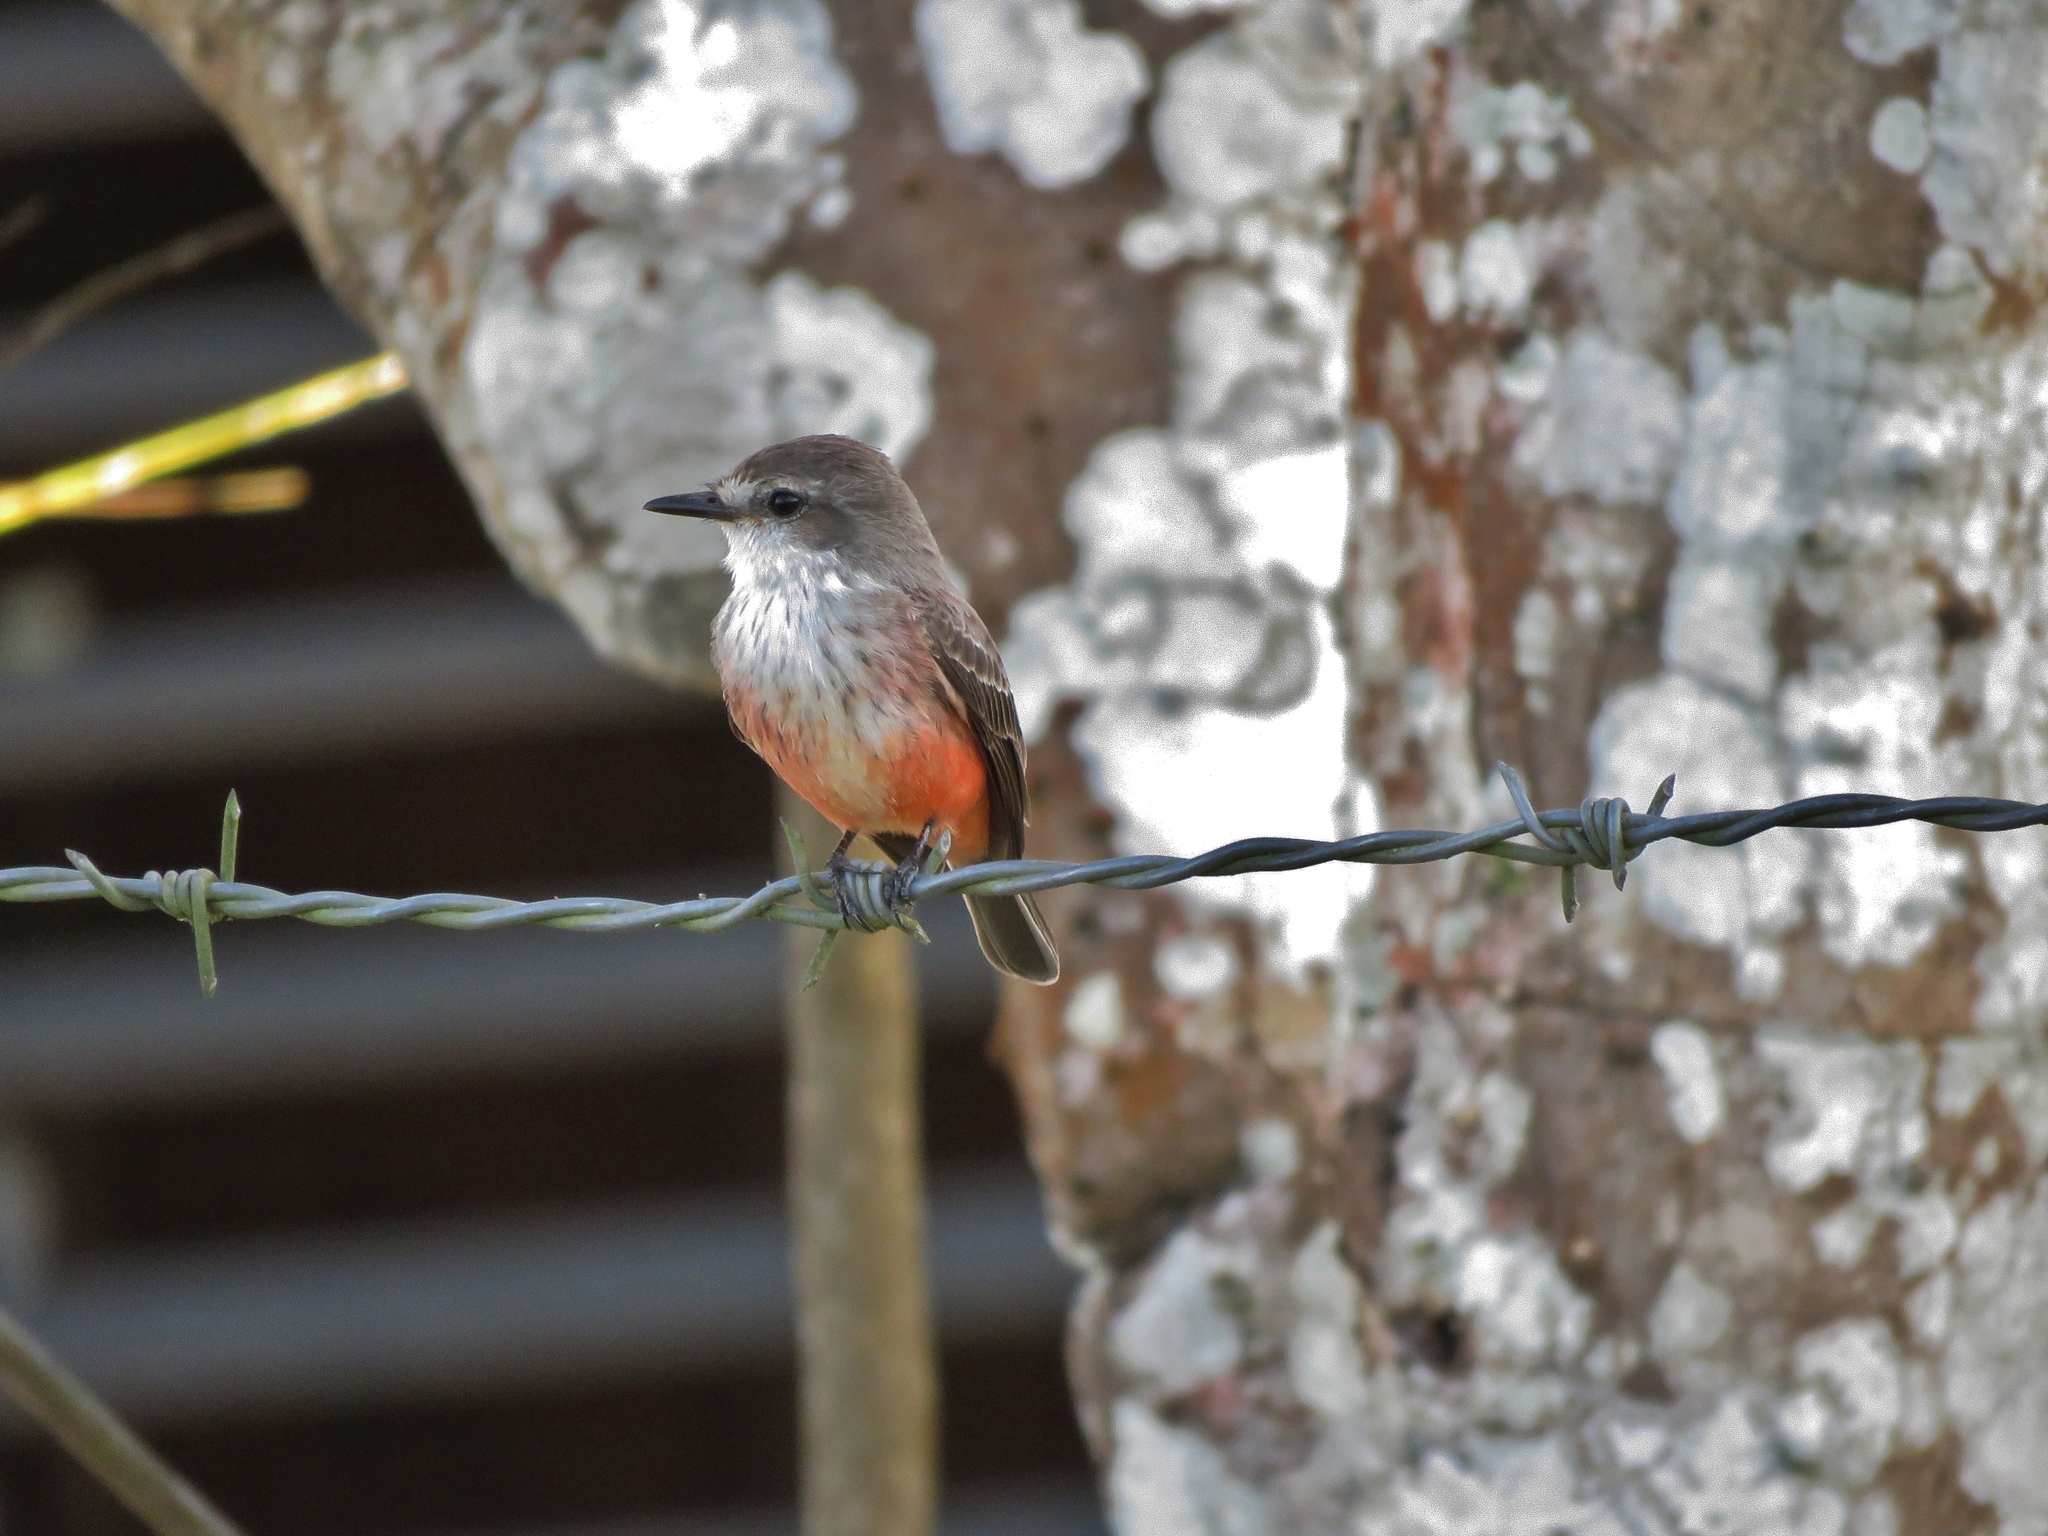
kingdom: Animalia
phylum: Chordata
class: Aves
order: Passeriformes
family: Tyrannidae
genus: Pyrocephalus
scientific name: Pyrocephalus rubinus
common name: Vermilion flycatcher
